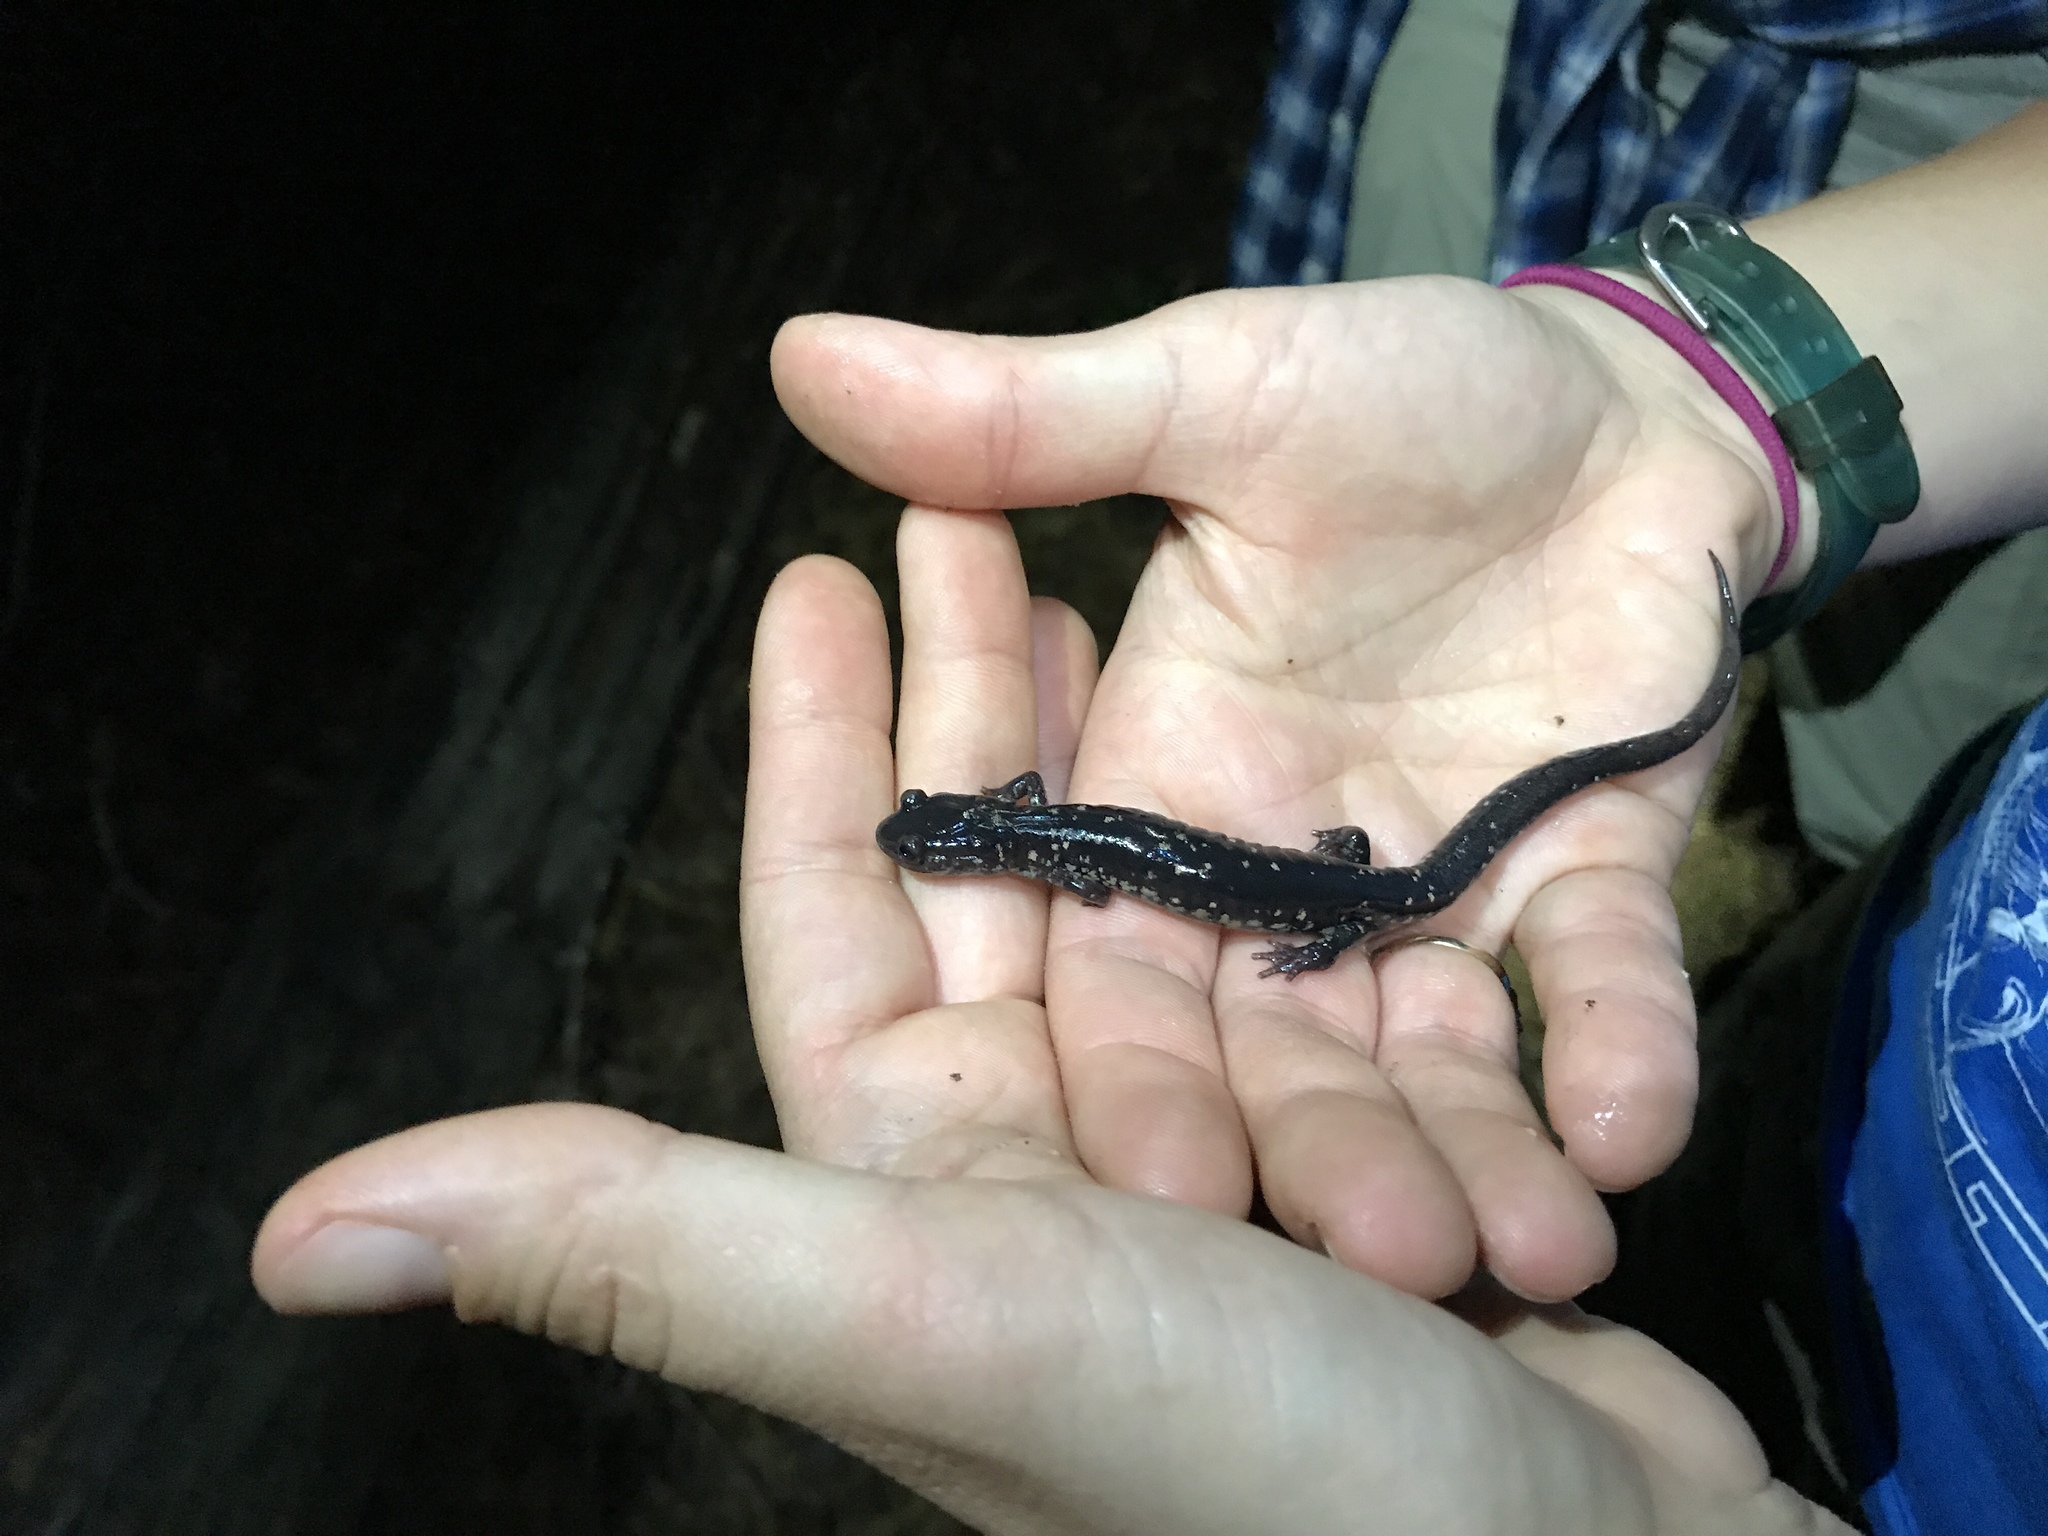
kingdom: Animalia
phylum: Chordata
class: Amphibia
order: Caudata
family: Plethodontidae
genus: Plethodon
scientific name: Plethodon mississippi
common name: Mississippi slimy salamander
